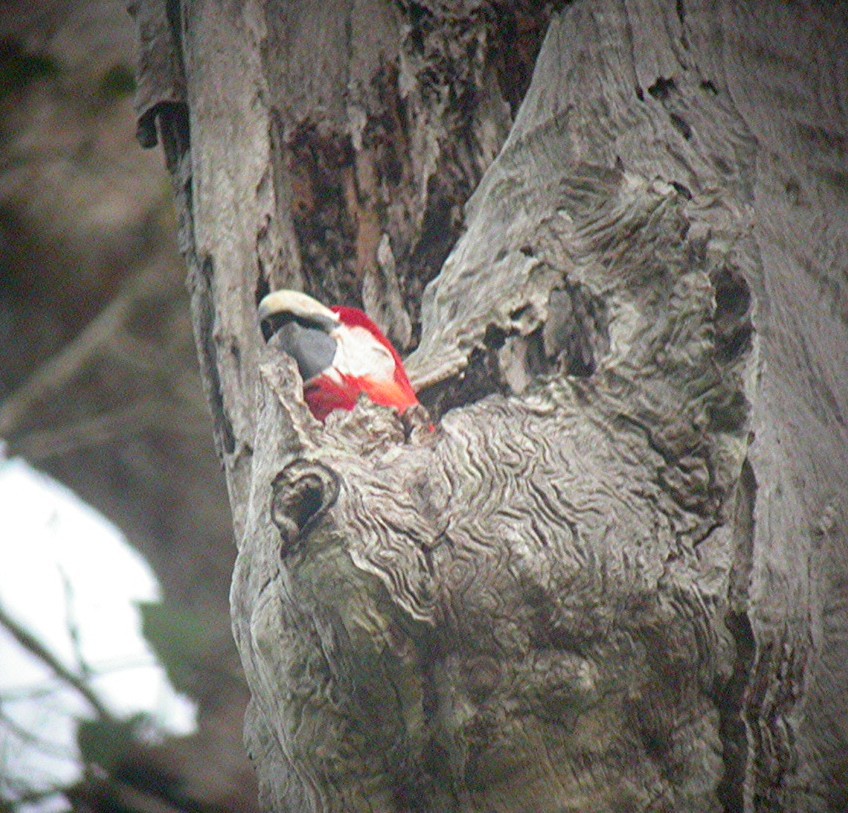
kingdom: Animalia
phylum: Chordata
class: Aves
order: Psittaciformes
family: Psittacidae
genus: Ara
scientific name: Ara macao
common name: Scarlet macaw
